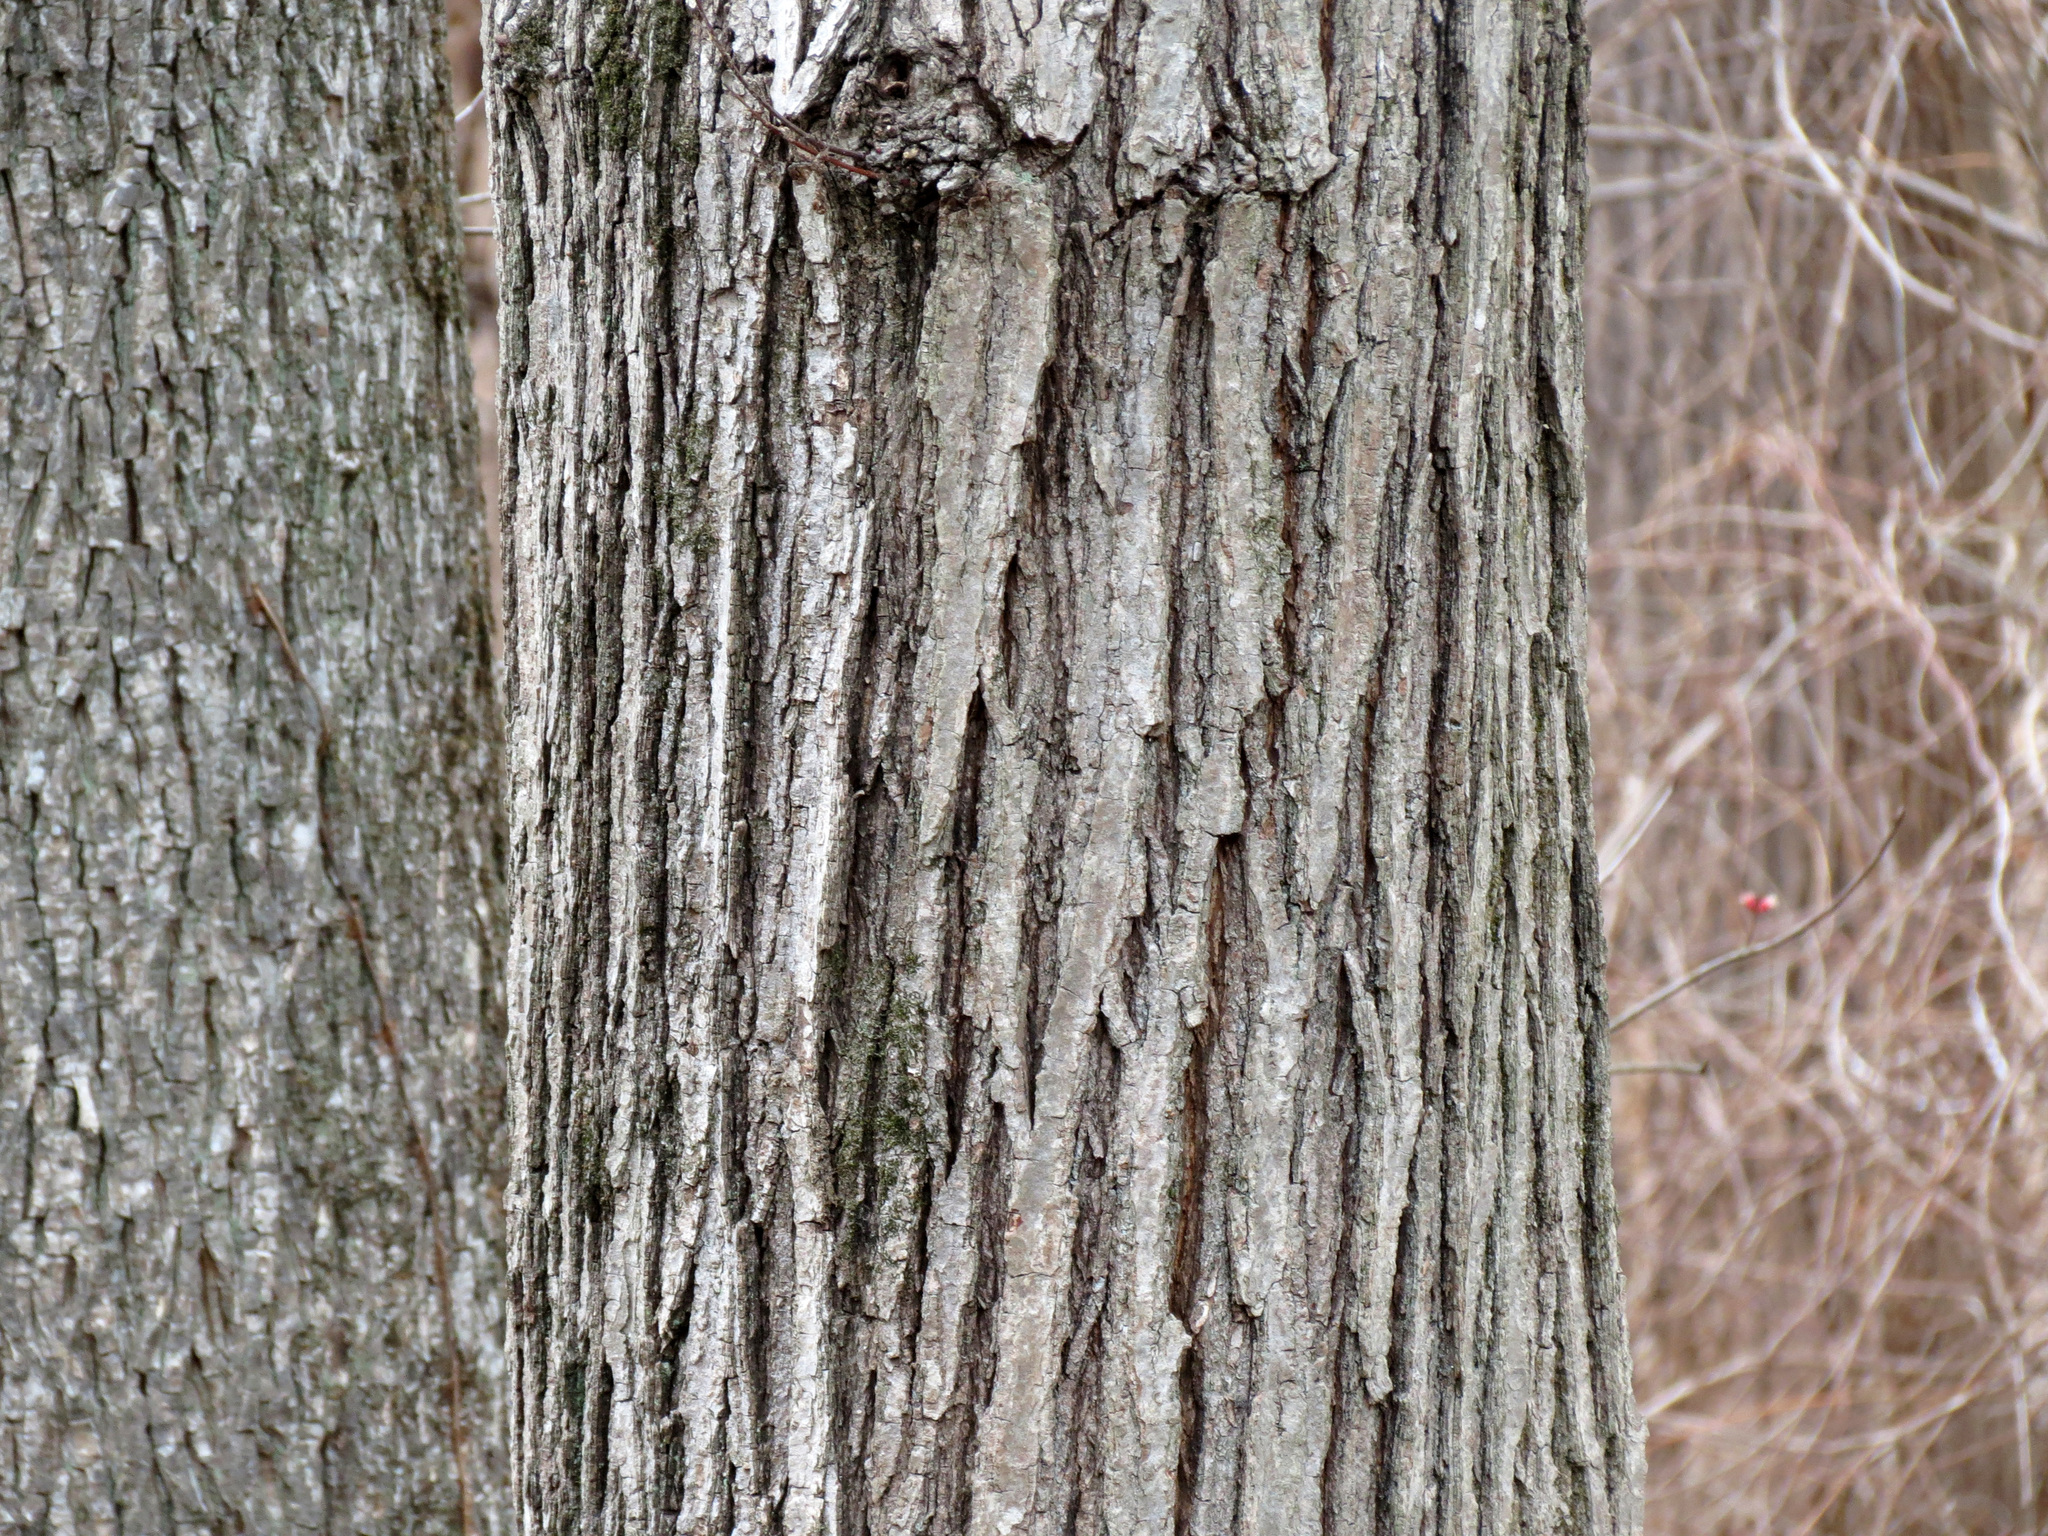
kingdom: Plantae
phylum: Tracheophyta
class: Magnoliopsida
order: Sapindales
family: Sapindaceae
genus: Acer
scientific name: Acer rubrum
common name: Red maple
